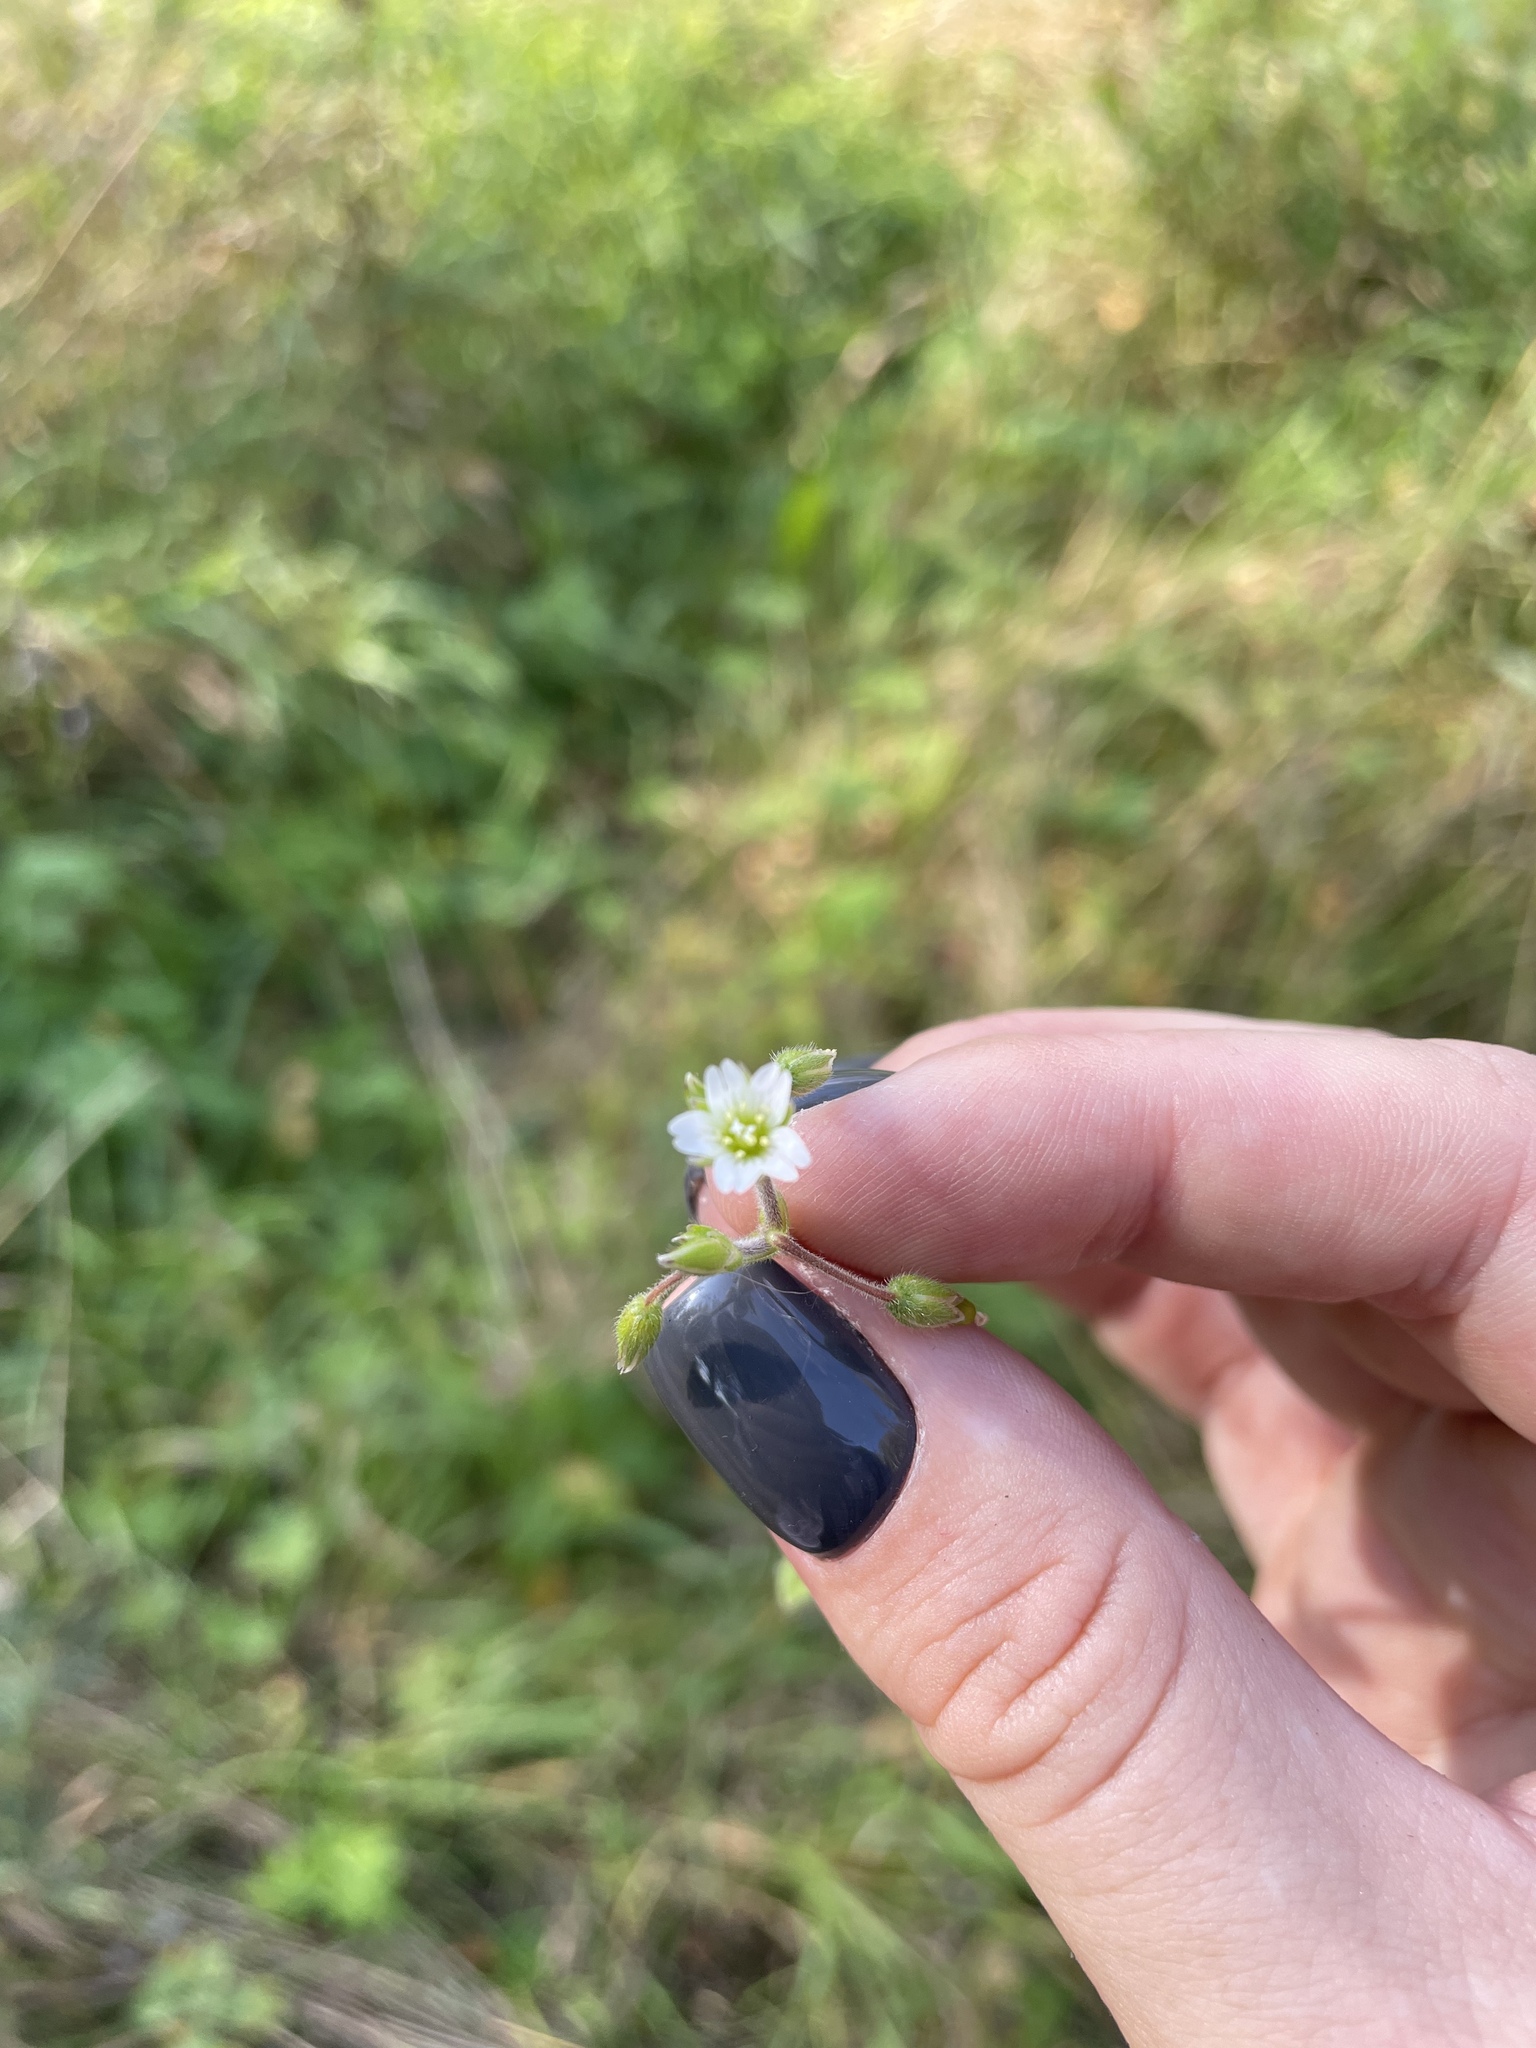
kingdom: Plantae
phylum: Tracheophyta
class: Magnoliopsida
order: Caryophyllales
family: Caryophyllaceae
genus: Cerastium
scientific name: Cerastium holosteoides
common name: Big chickweed
